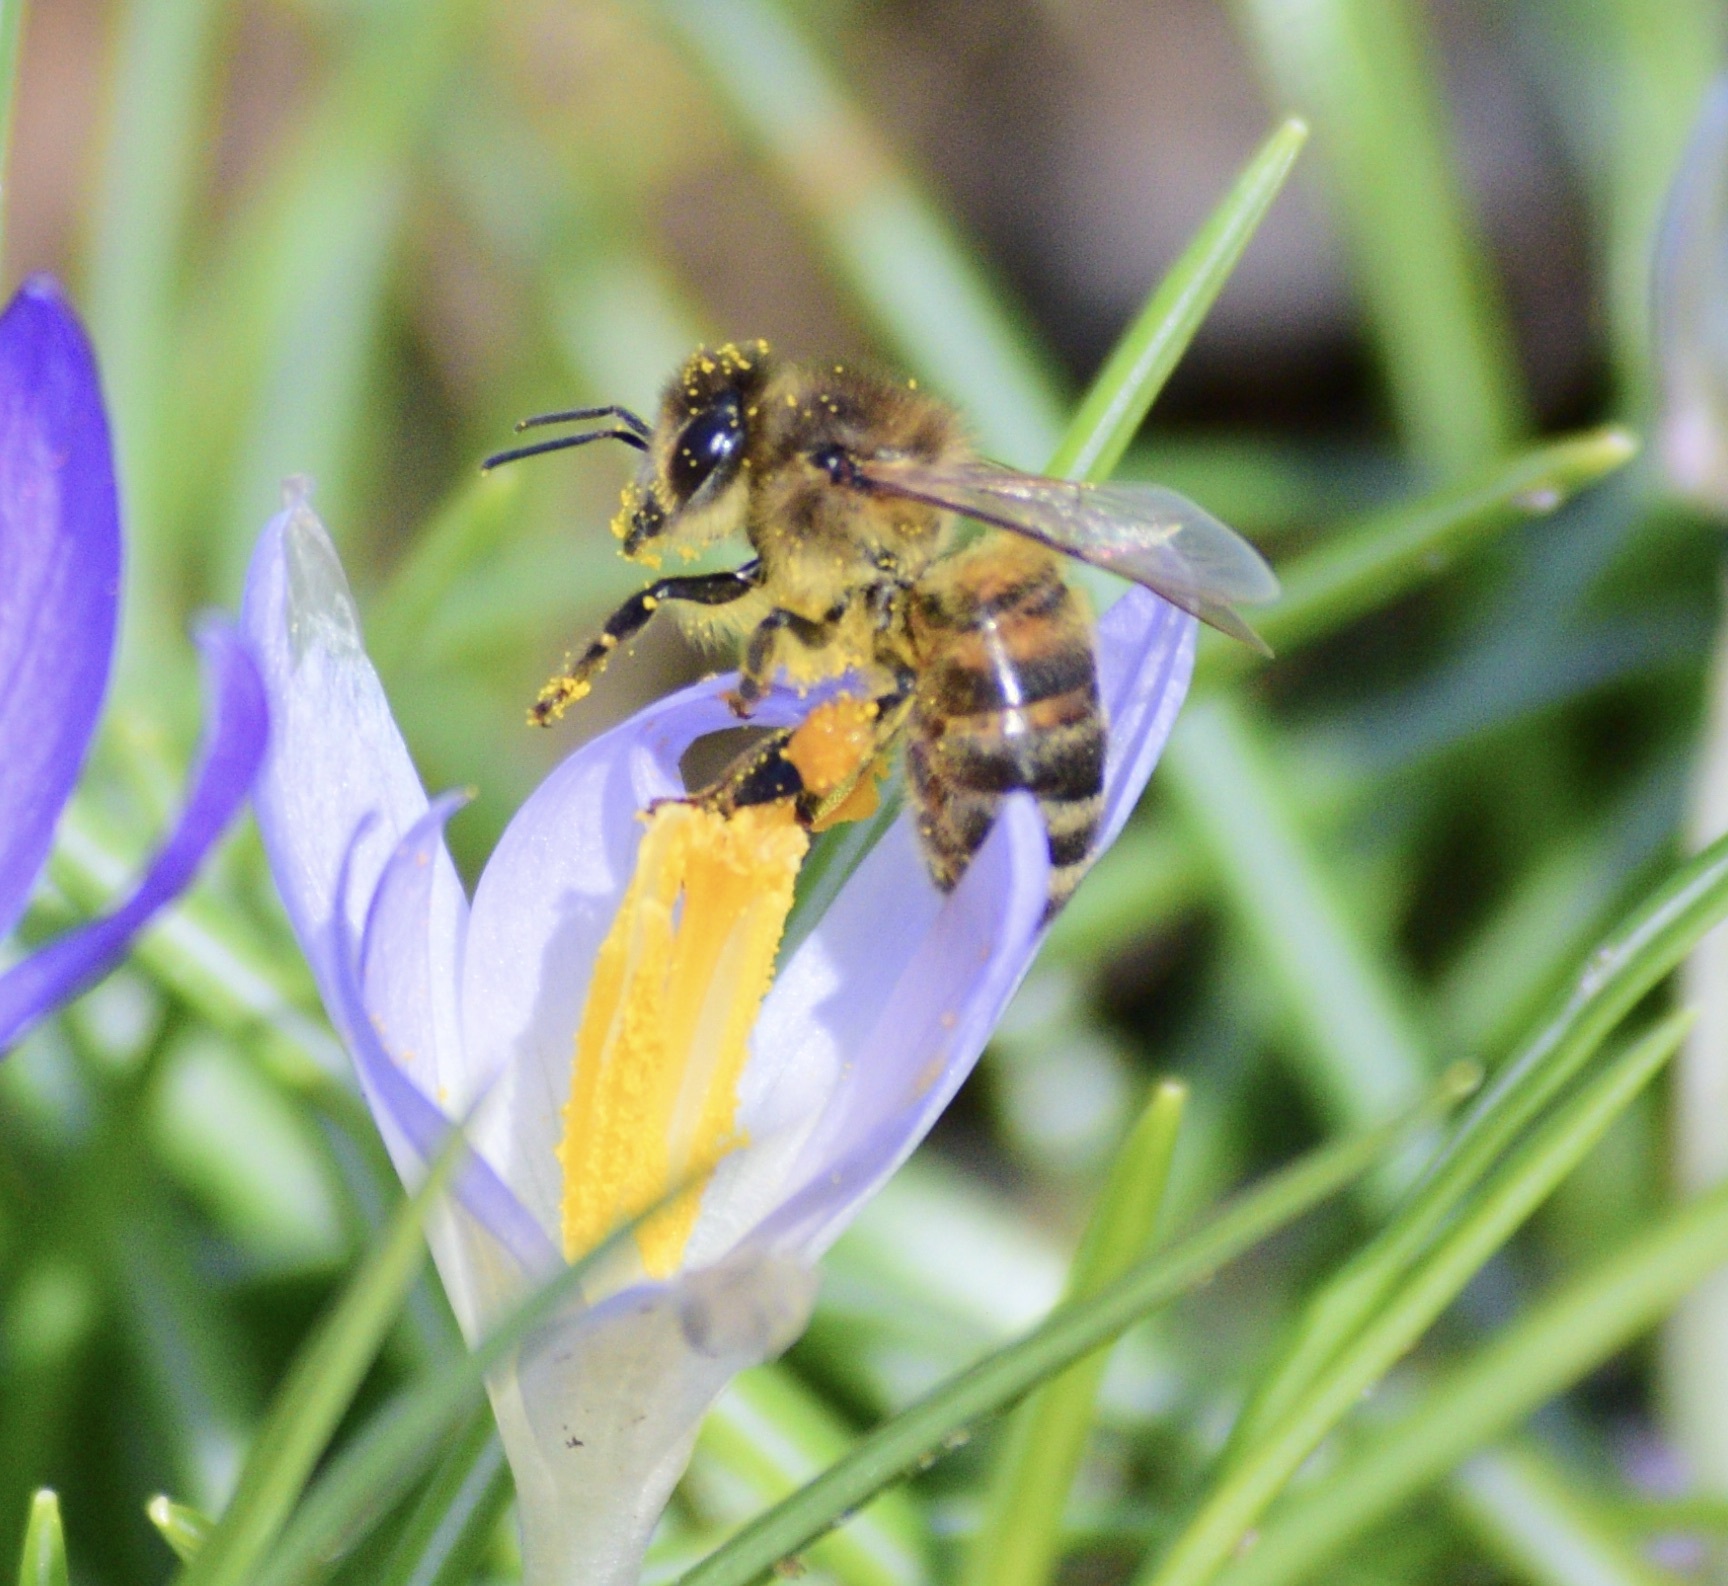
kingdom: Animalia
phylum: Arthropoda
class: Insecta
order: Hymenoptera
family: Apidae
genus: Apis
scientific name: Apis mellifera
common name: Honey bee
